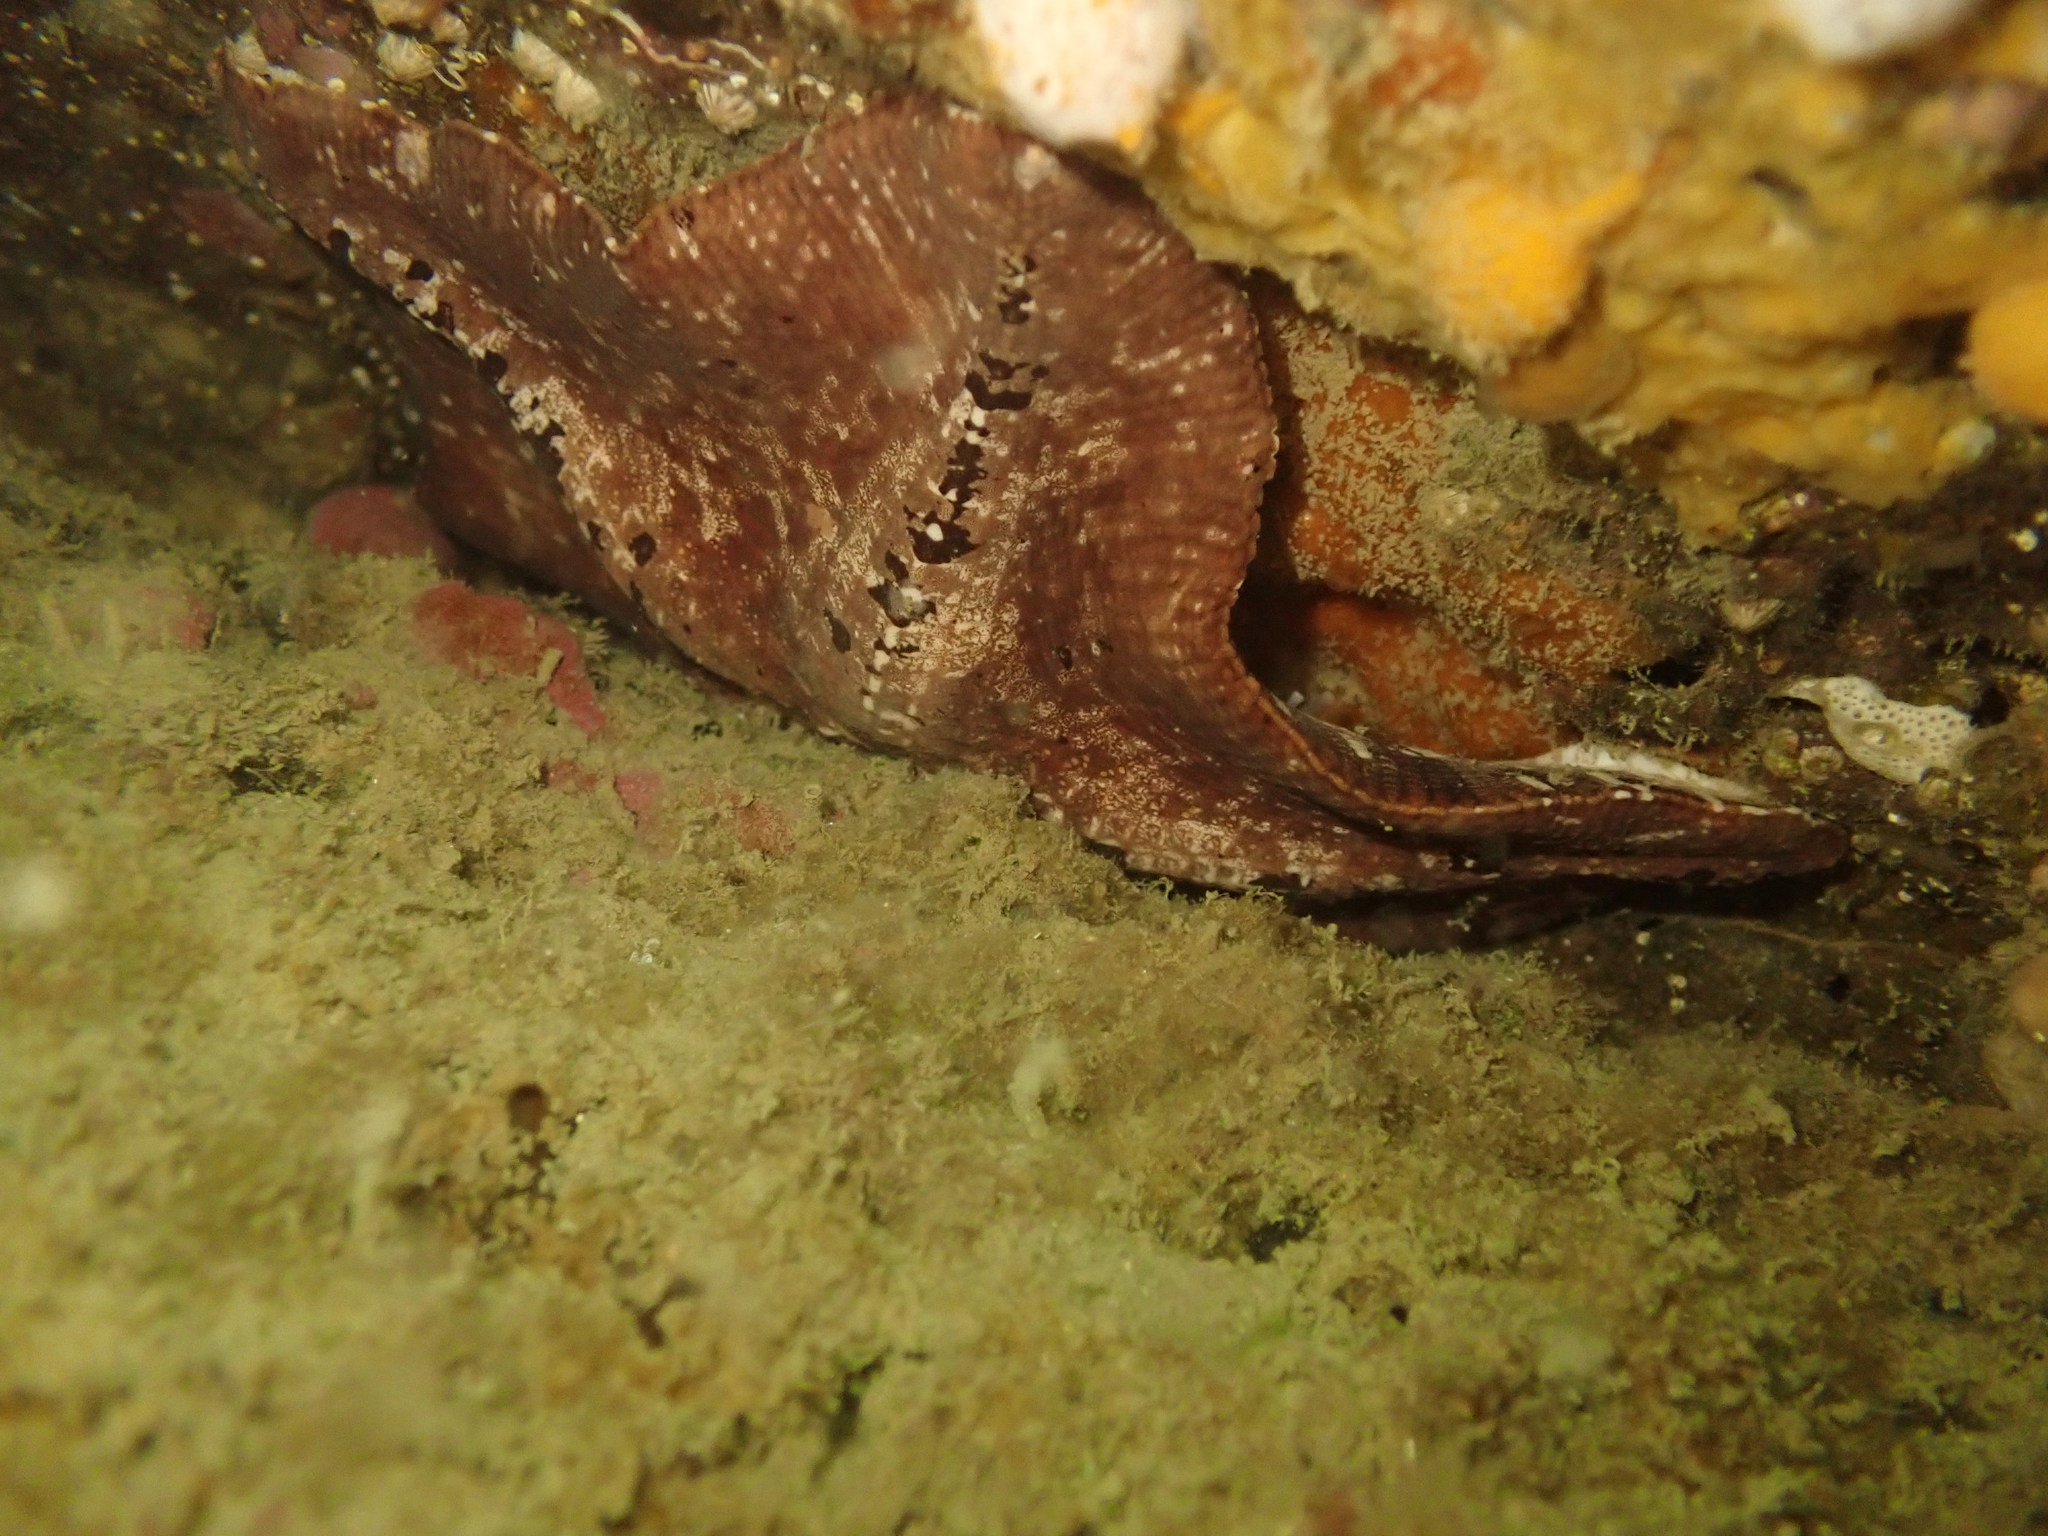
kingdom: Animalia
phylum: Echinodermata
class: Asteroidea
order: Valvatida
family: Asterinidae
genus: Stegnaster
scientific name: Stegnaster inflatus
